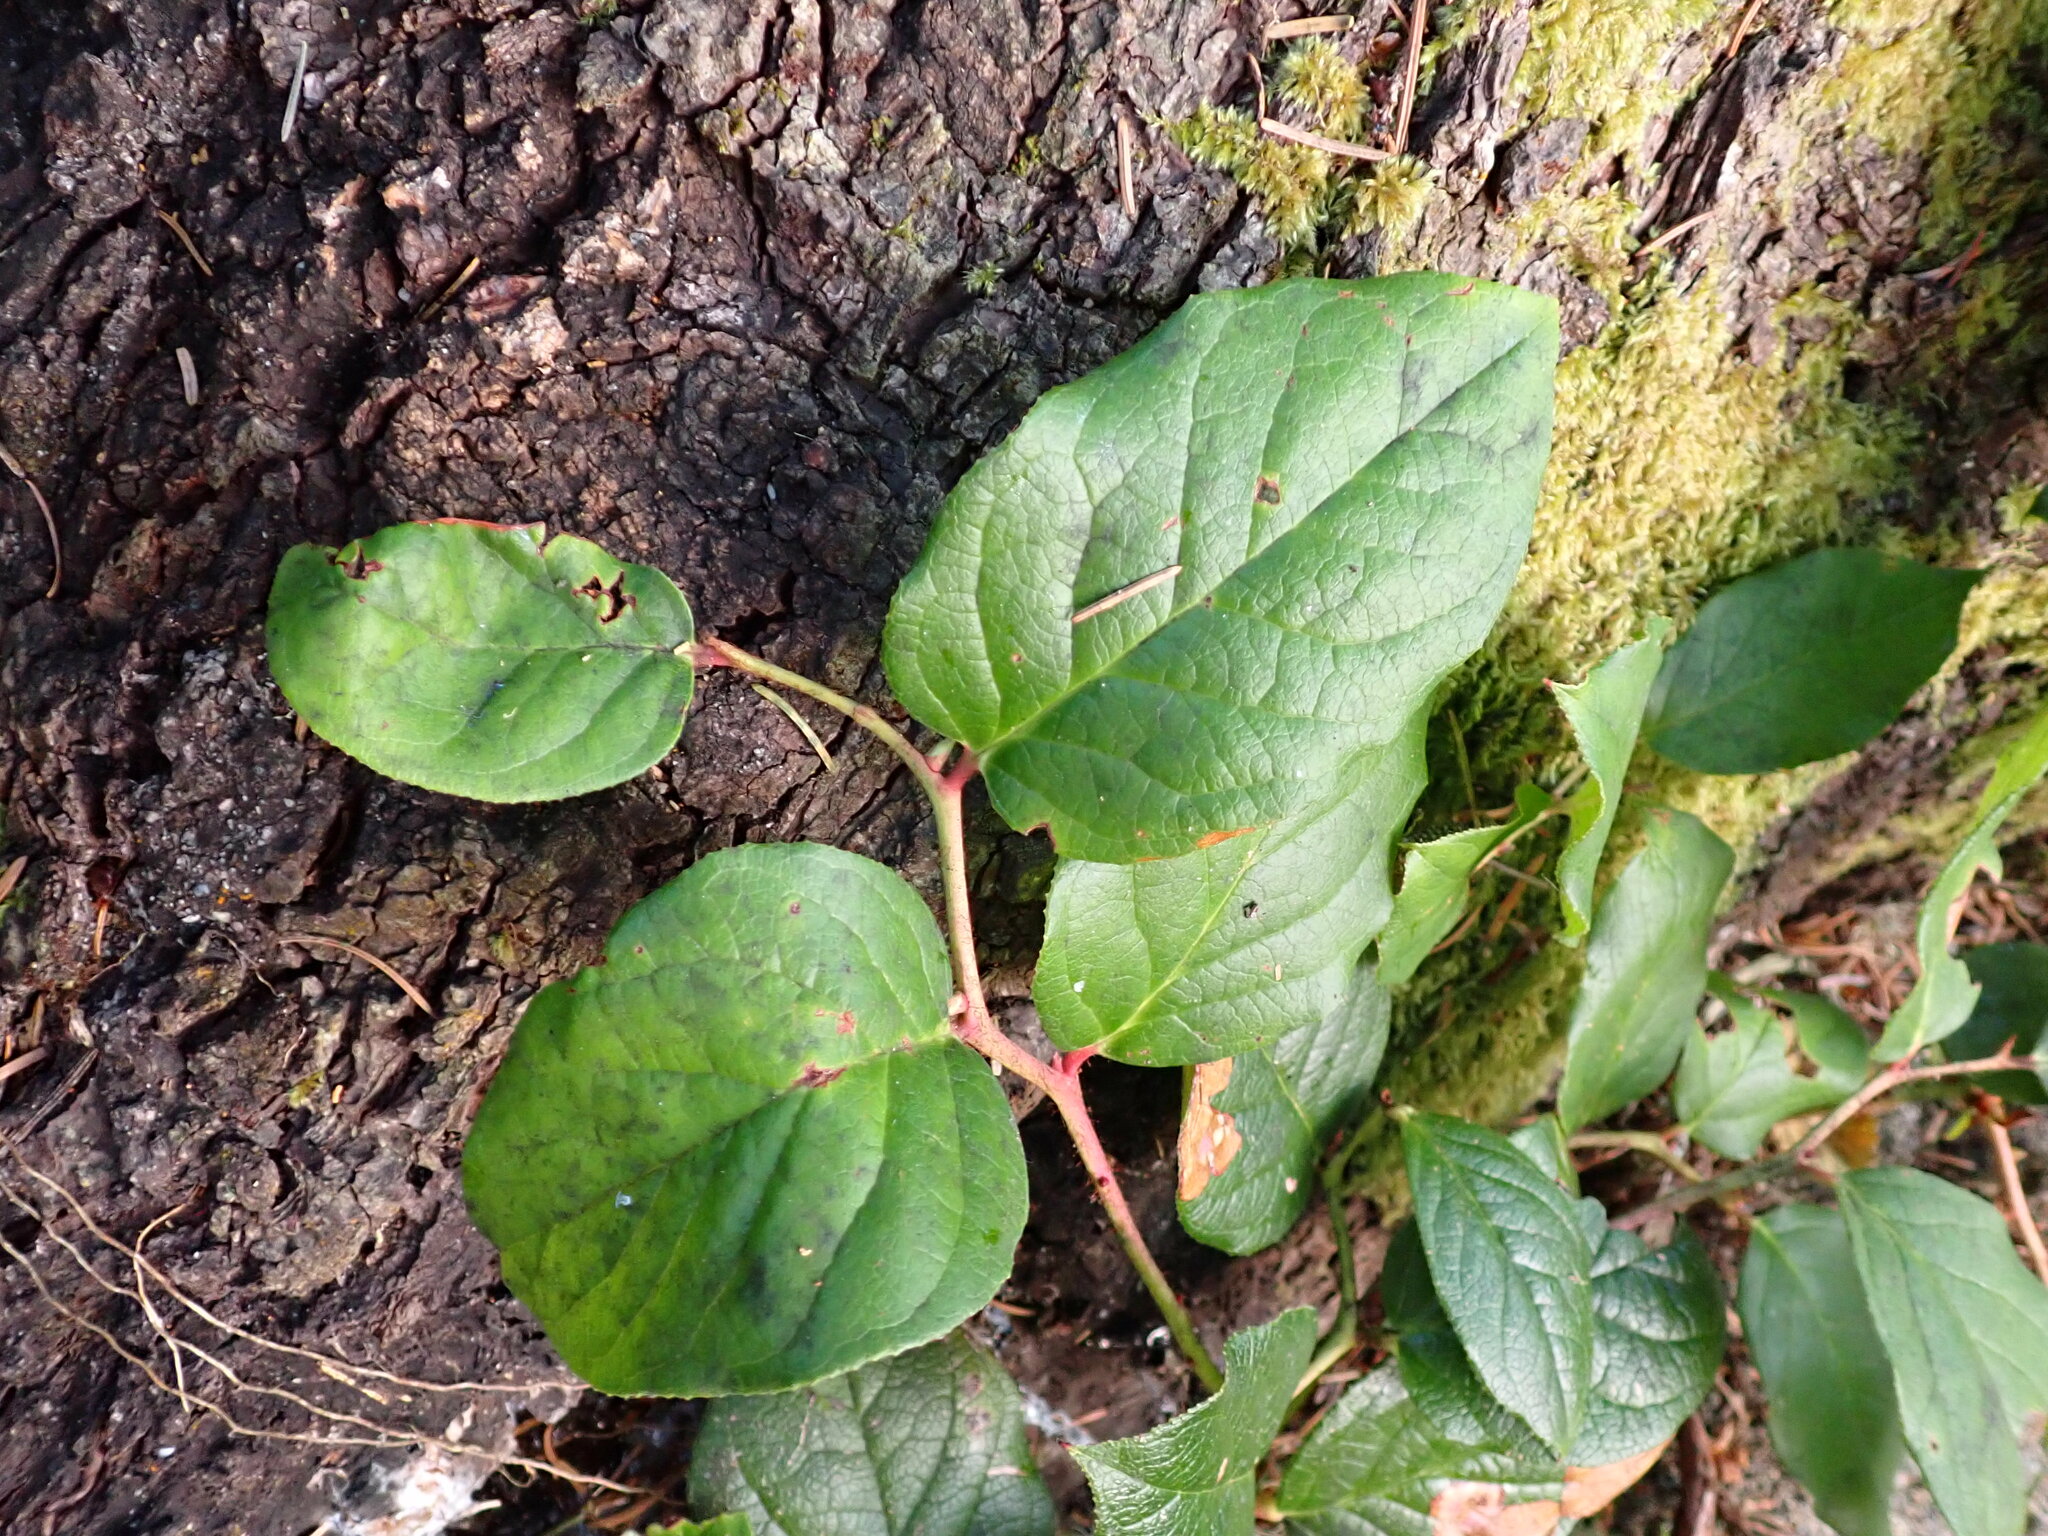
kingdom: Plantae
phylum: Tracheophyta
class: Magnoliopsida
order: Ericales
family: Ericaceae
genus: Gaultheria
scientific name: Gaultheria shallon
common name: Shallon
